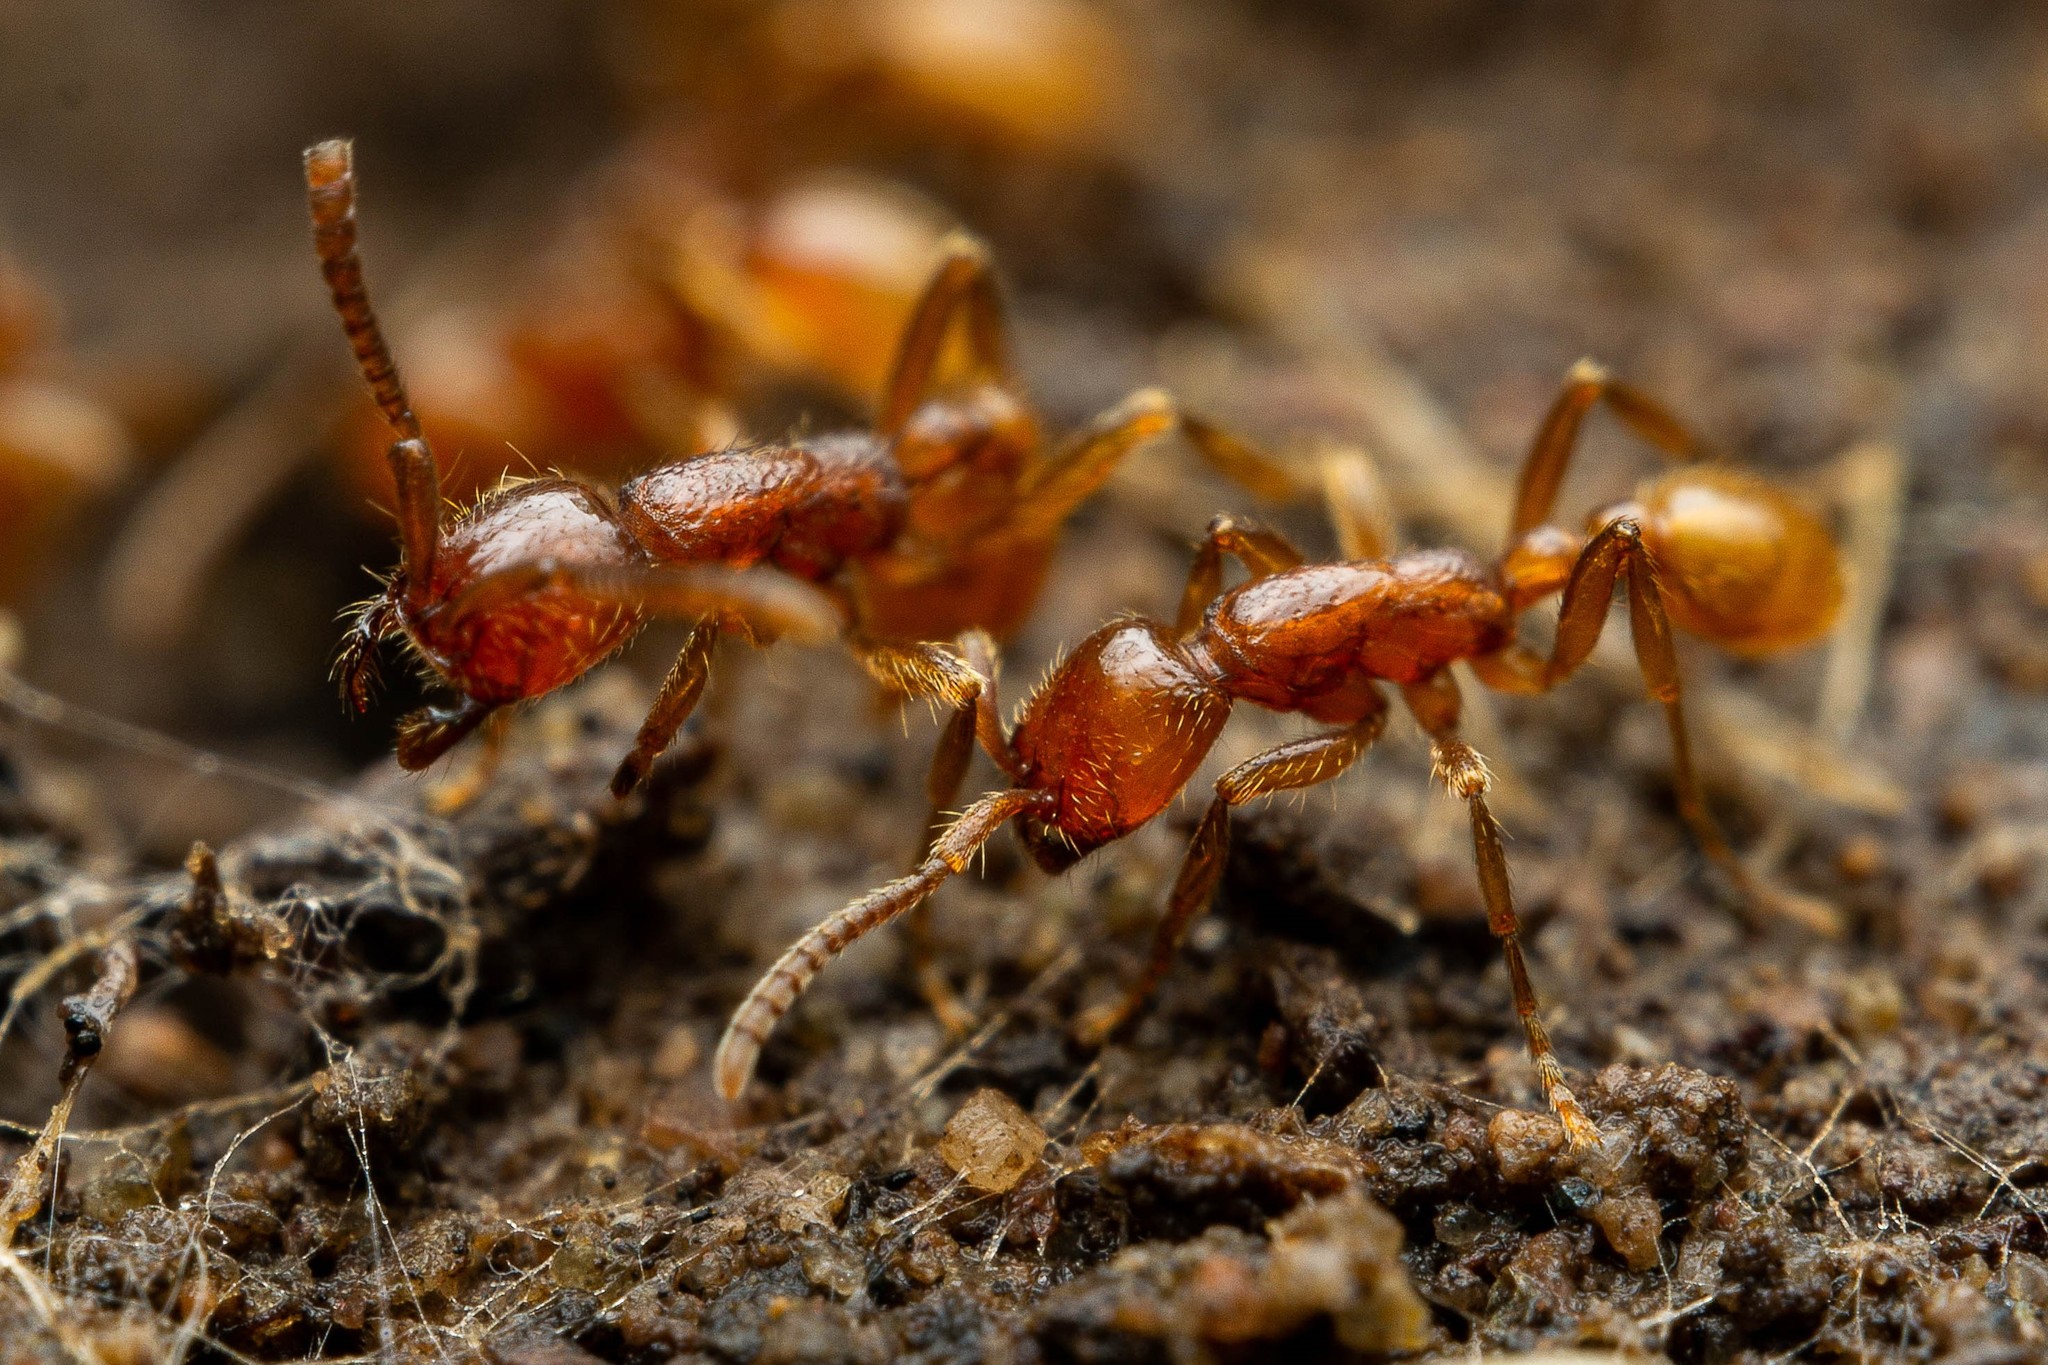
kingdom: Animalia
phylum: Arthropoda
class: Insecta
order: Hymenoptera
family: Formicidae
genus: Neivamyrmex
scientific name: Neivamyrmex opacithorax
